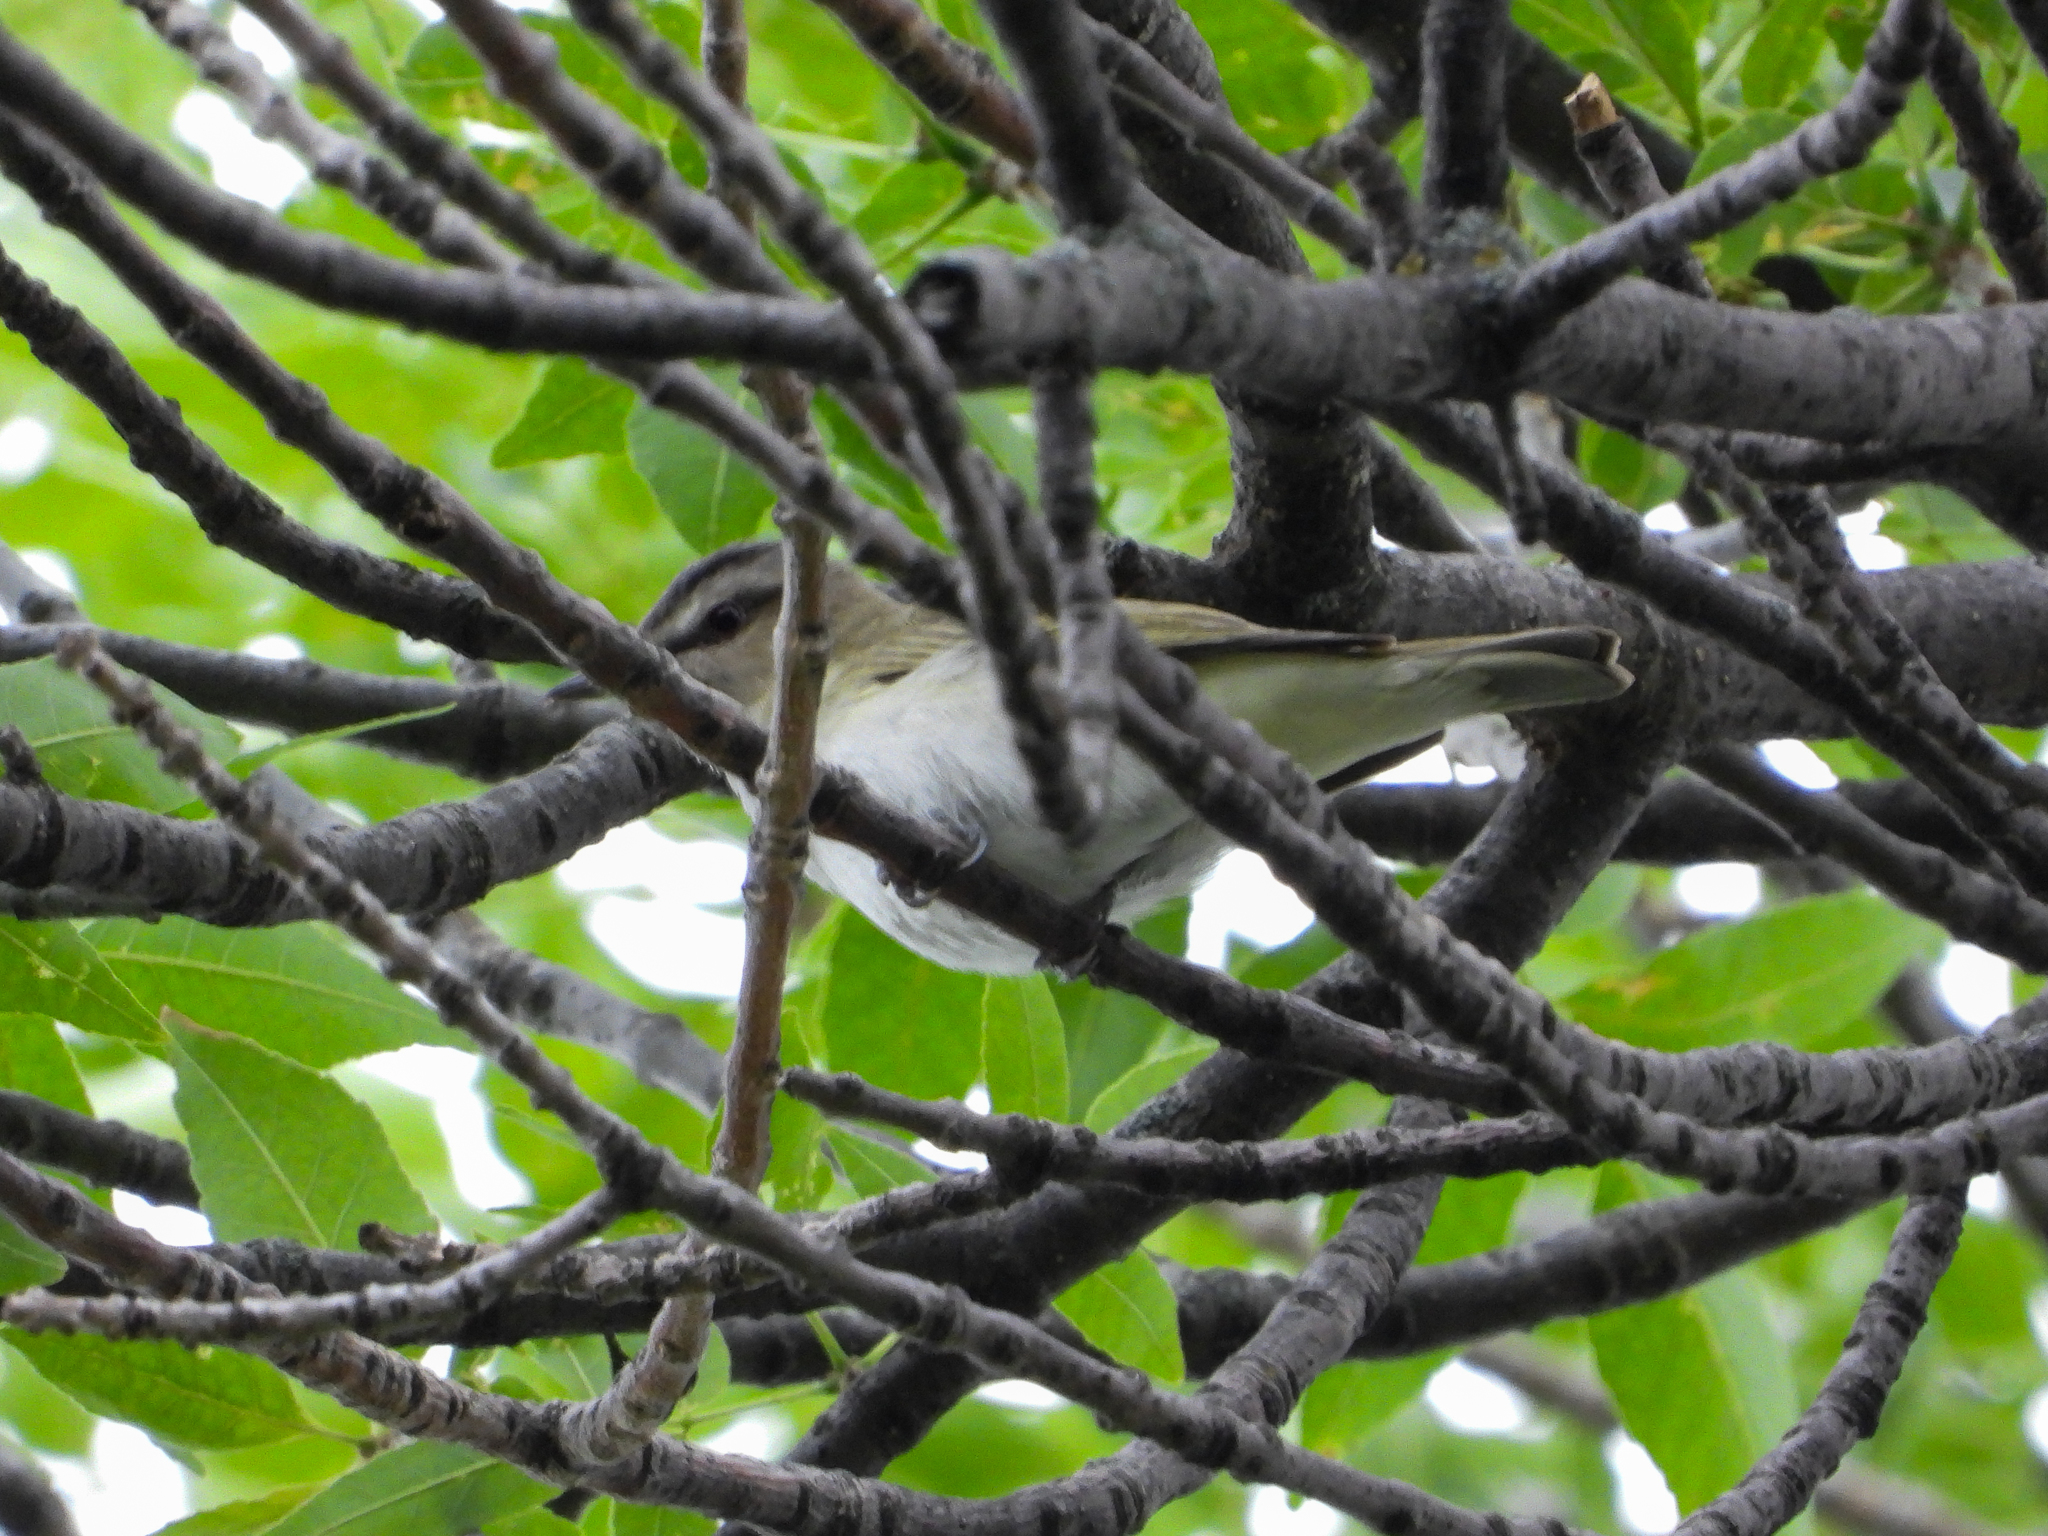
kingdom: Animalia
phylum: Chordata
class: Aves
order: Passeriformes
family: Vireonidae
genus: Vireo
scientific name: Vireo olivaceus
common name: Red-eyed vireo
